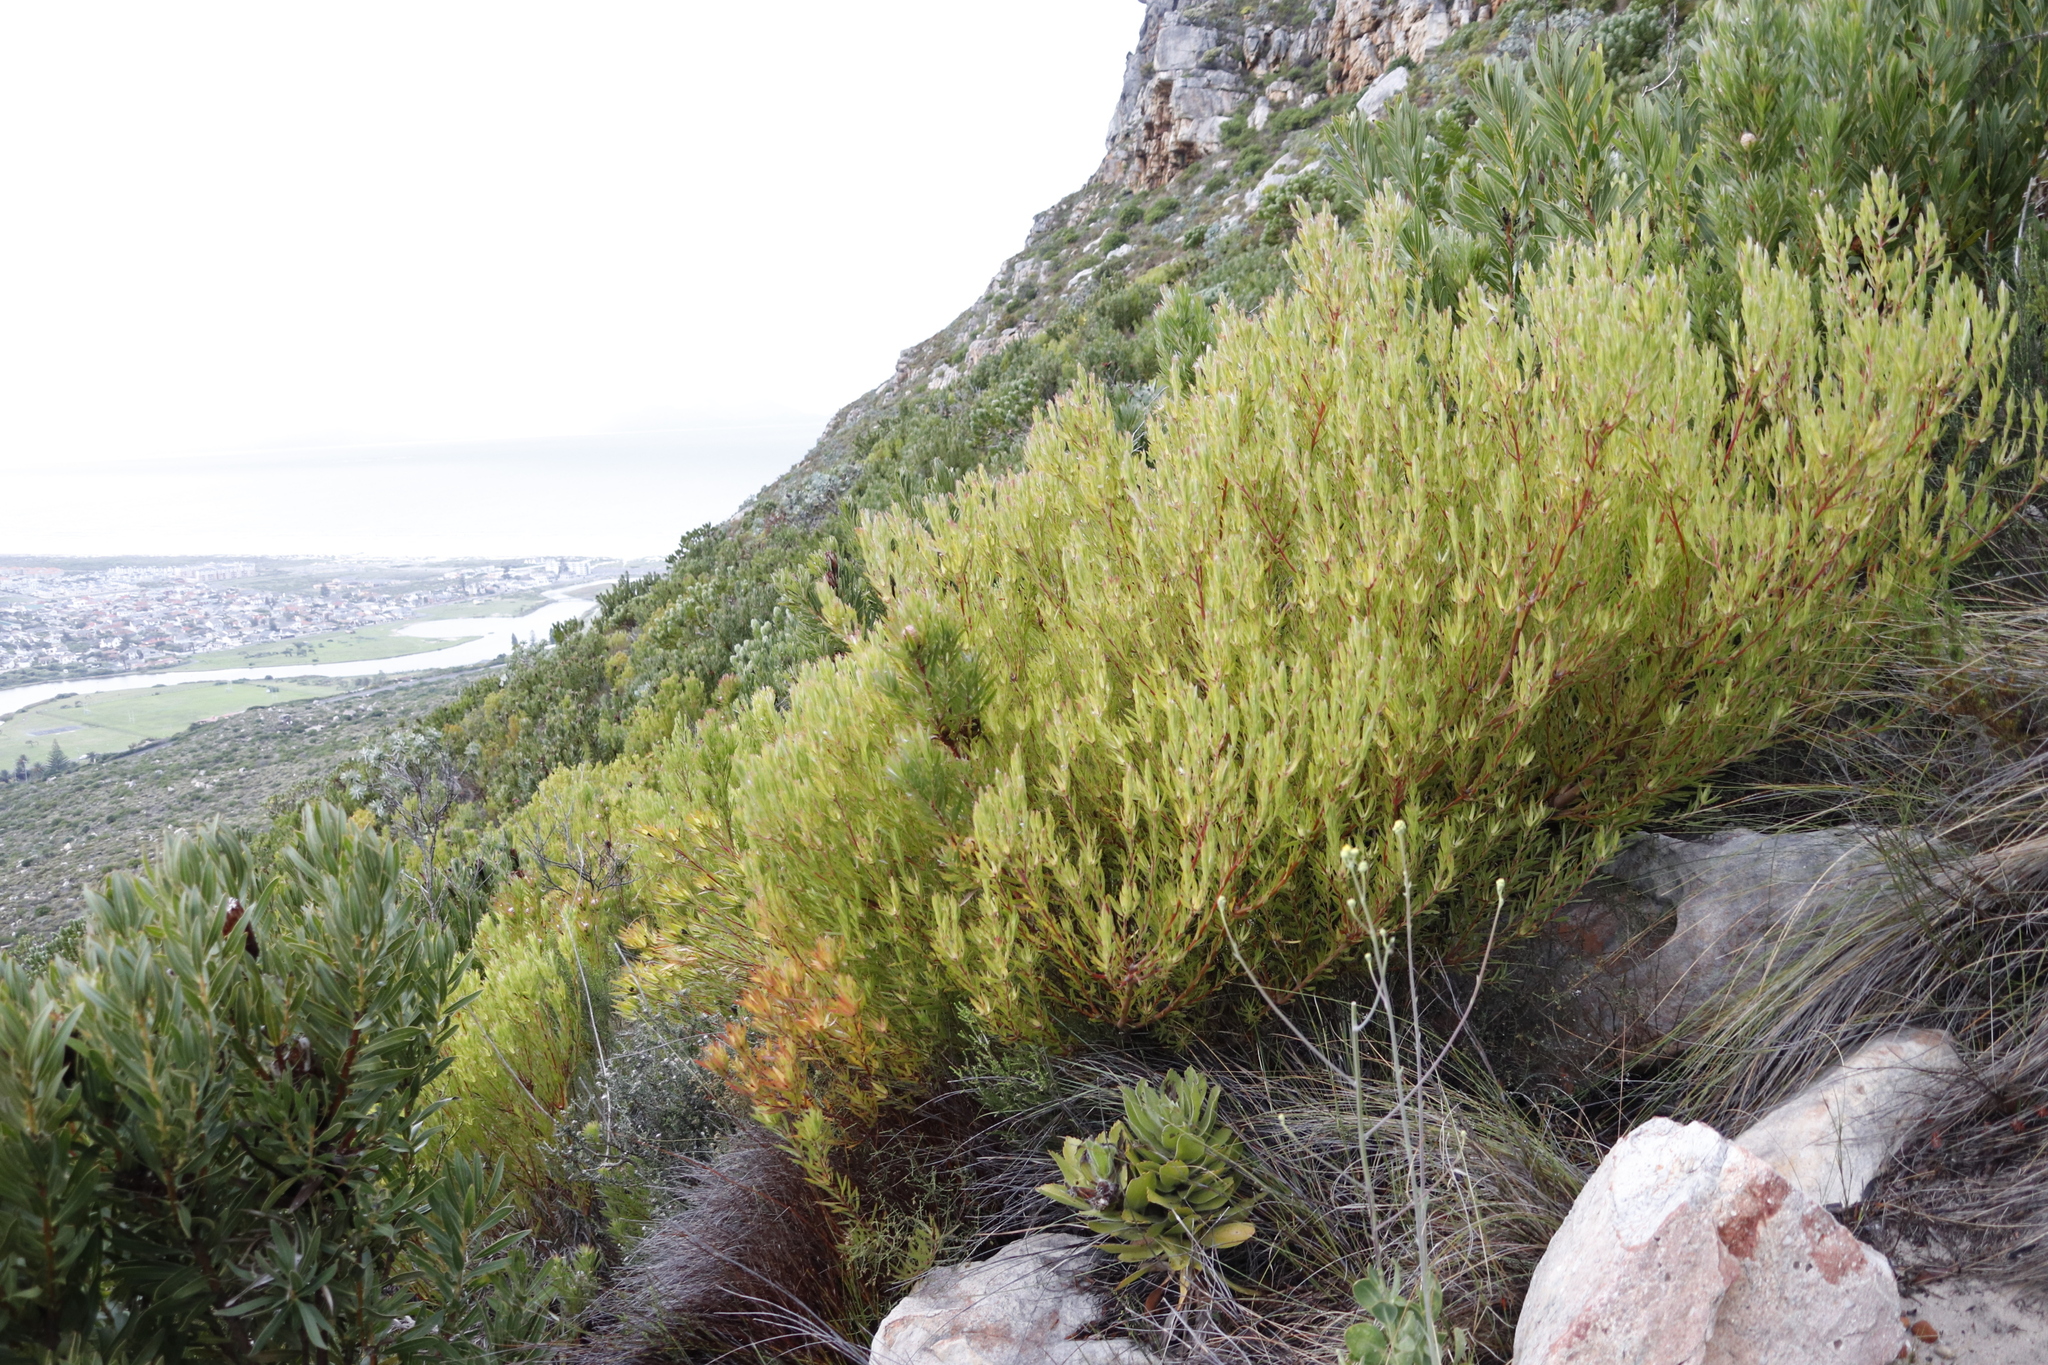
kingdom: Plantae
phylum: Tracheophyta
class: Magnoliopsida
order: Proteales
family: Proteaceae
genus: Leucadendron
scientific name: Leucadendron xanthoconus
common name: Sickle-leaf conebush
